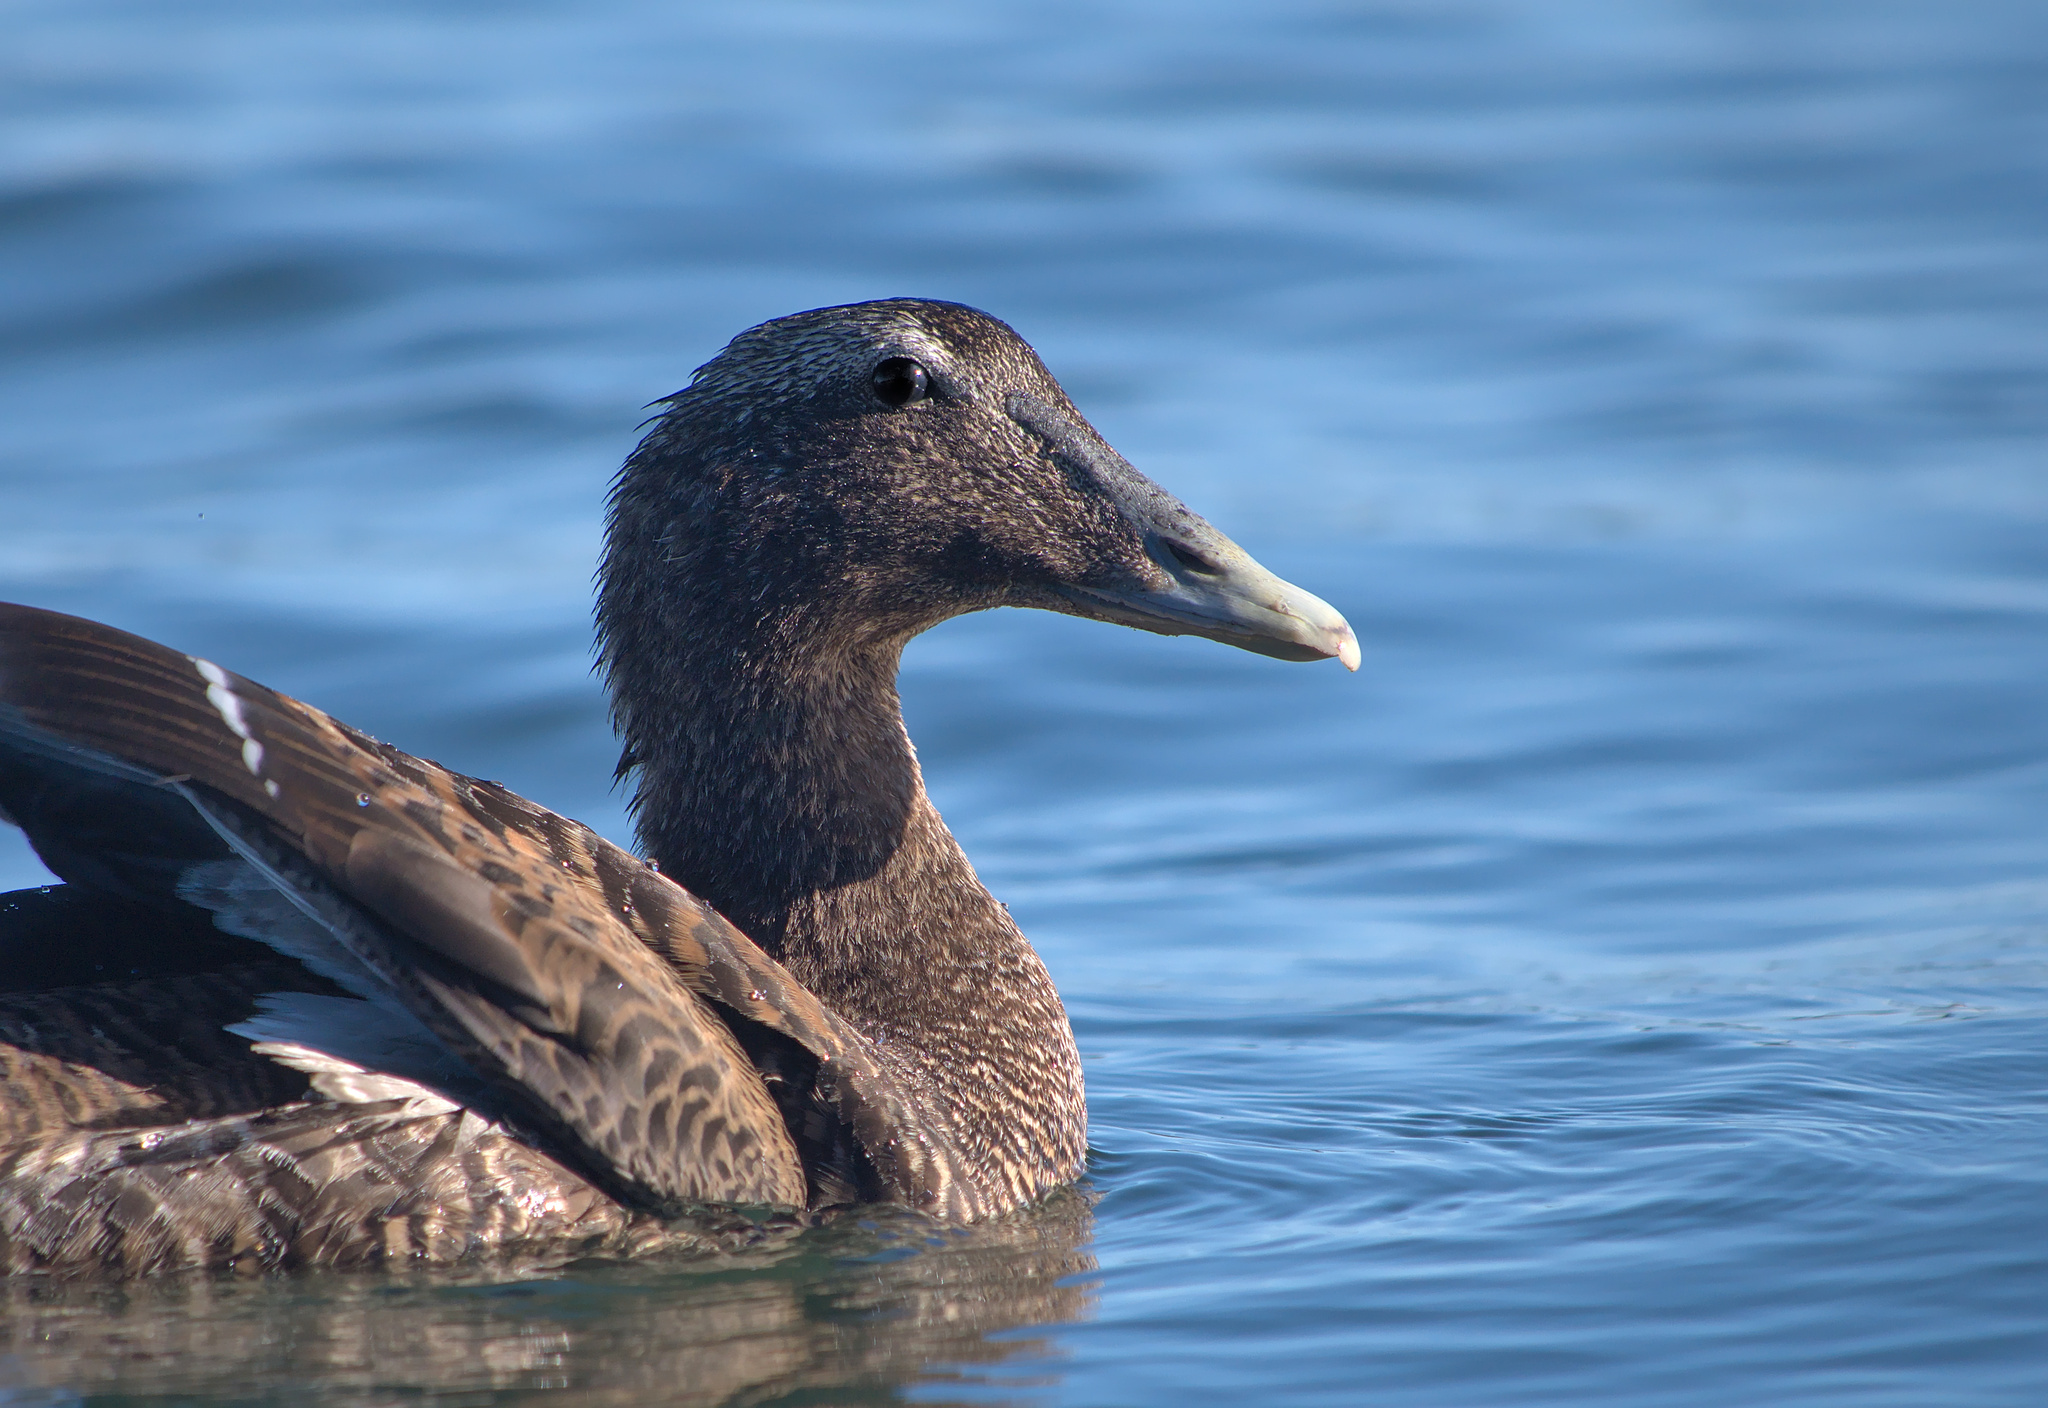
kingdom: Animalia
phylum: Chordata
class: Aves
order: Anseriformes
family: Anatidae
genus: Somateria
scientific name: Somateria mollissima
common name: Common eider
